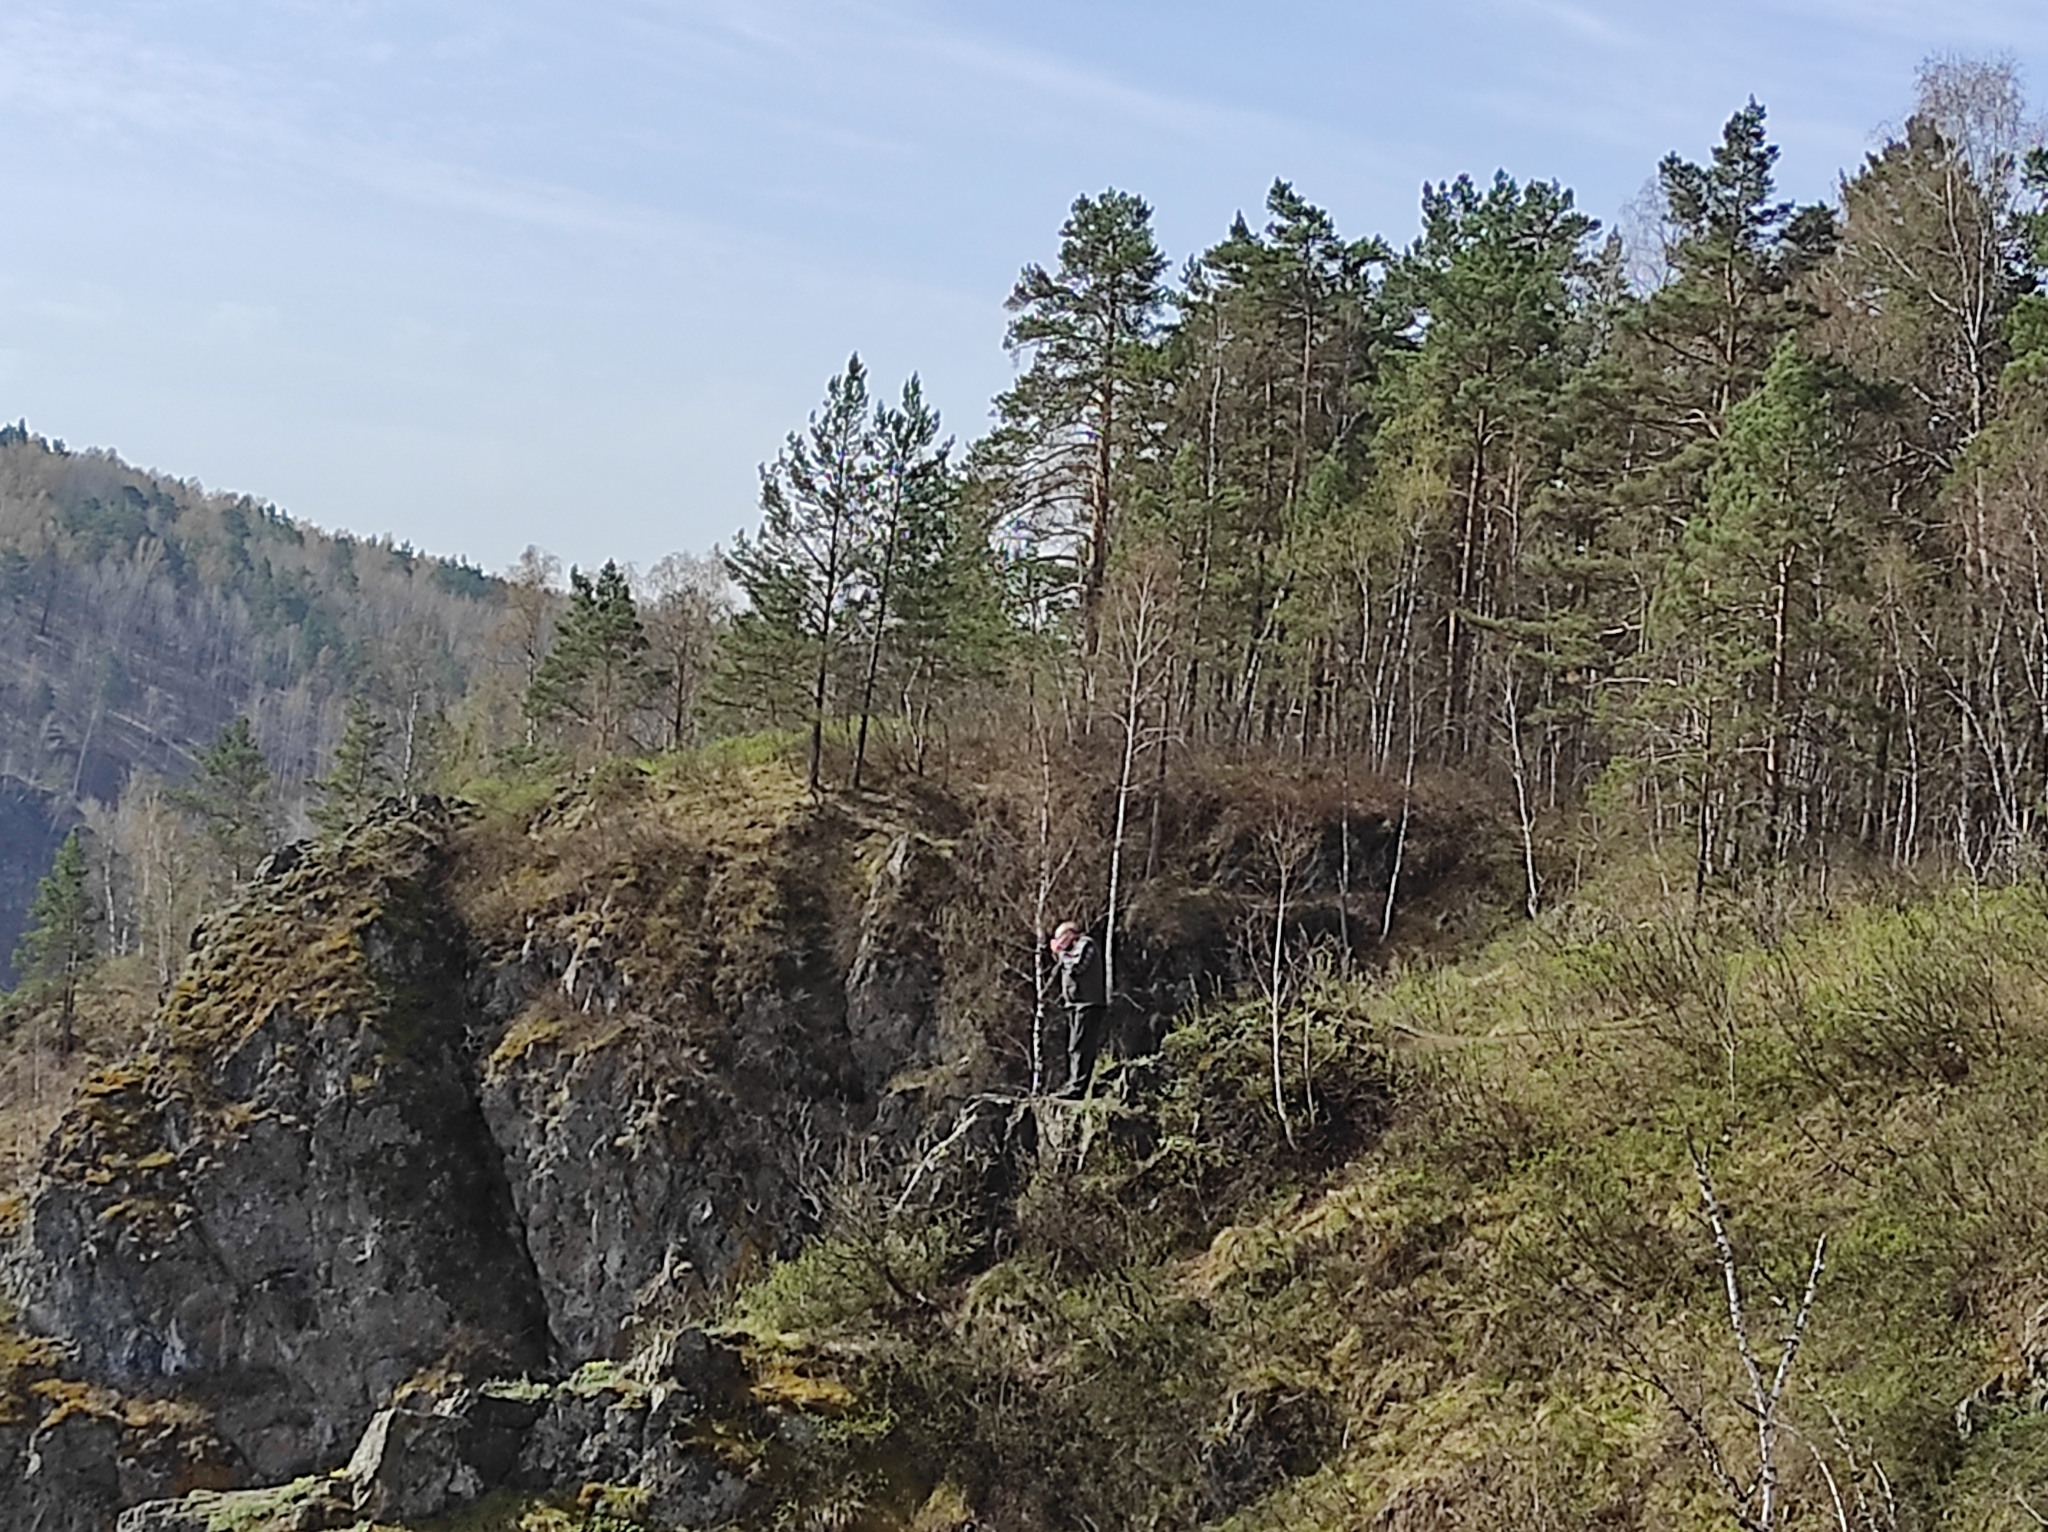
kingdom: Plantae
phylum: Tracheophyta
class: Pinopsida
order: Pinales
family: Pinaceae
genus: Pinus
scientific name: Pinus sylvestris
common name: Scots pine
